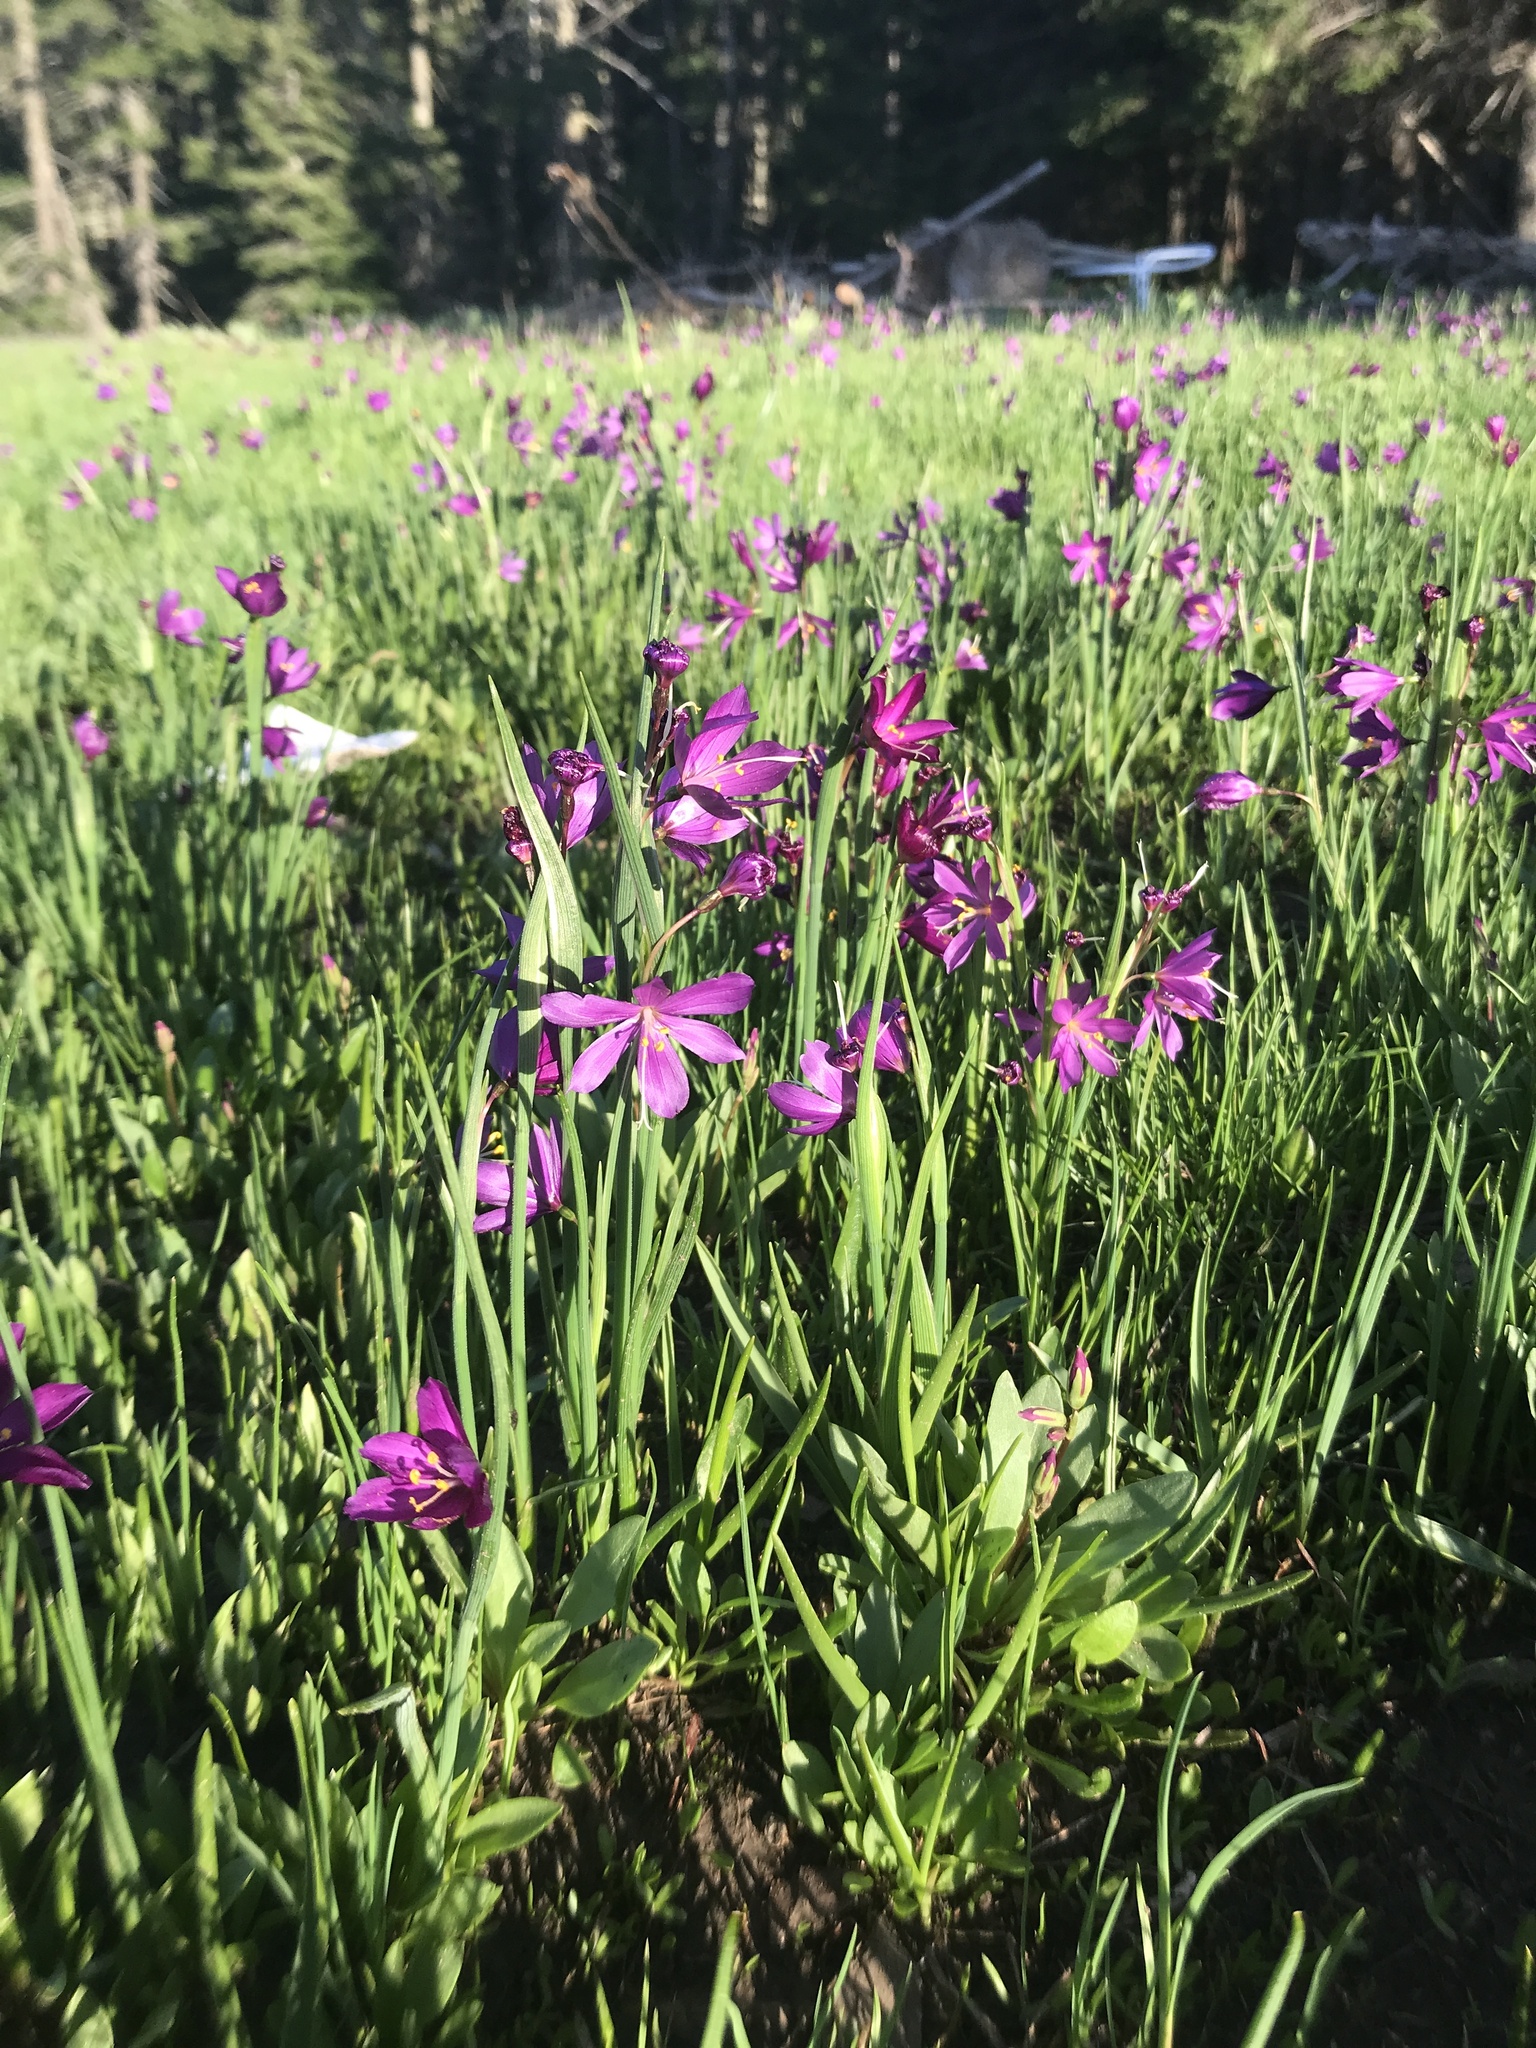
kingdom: Plantae
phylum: Tracheophyta
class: Liliopsida
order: Asparagales
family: Iridaceae
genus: Olsynium
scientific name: Olsynium douglasii
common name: Douglas' grasswidow
